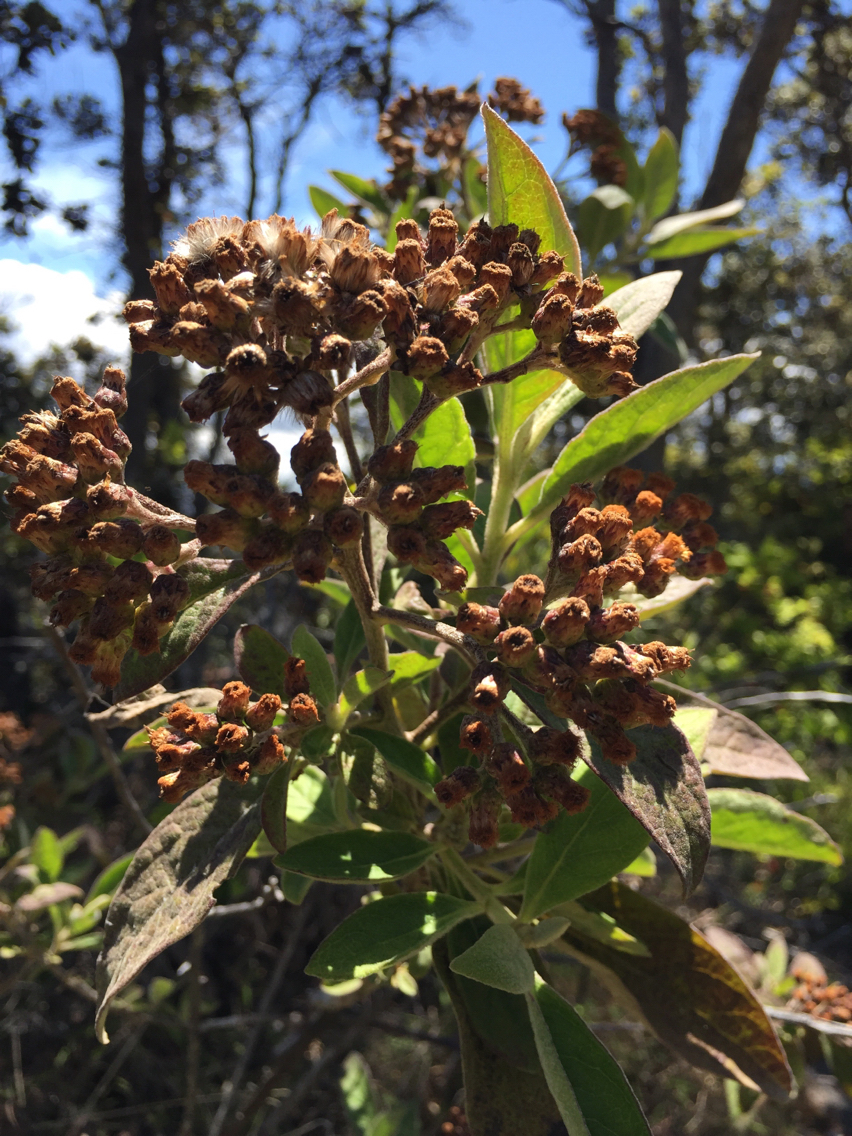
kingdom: Plantae
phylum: Tracheophyta
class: Magnoliopsida
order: Asterales
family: Asteraceae
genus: Pluchea
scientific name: Pluchea carolinensis
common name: Marsh fleabane
